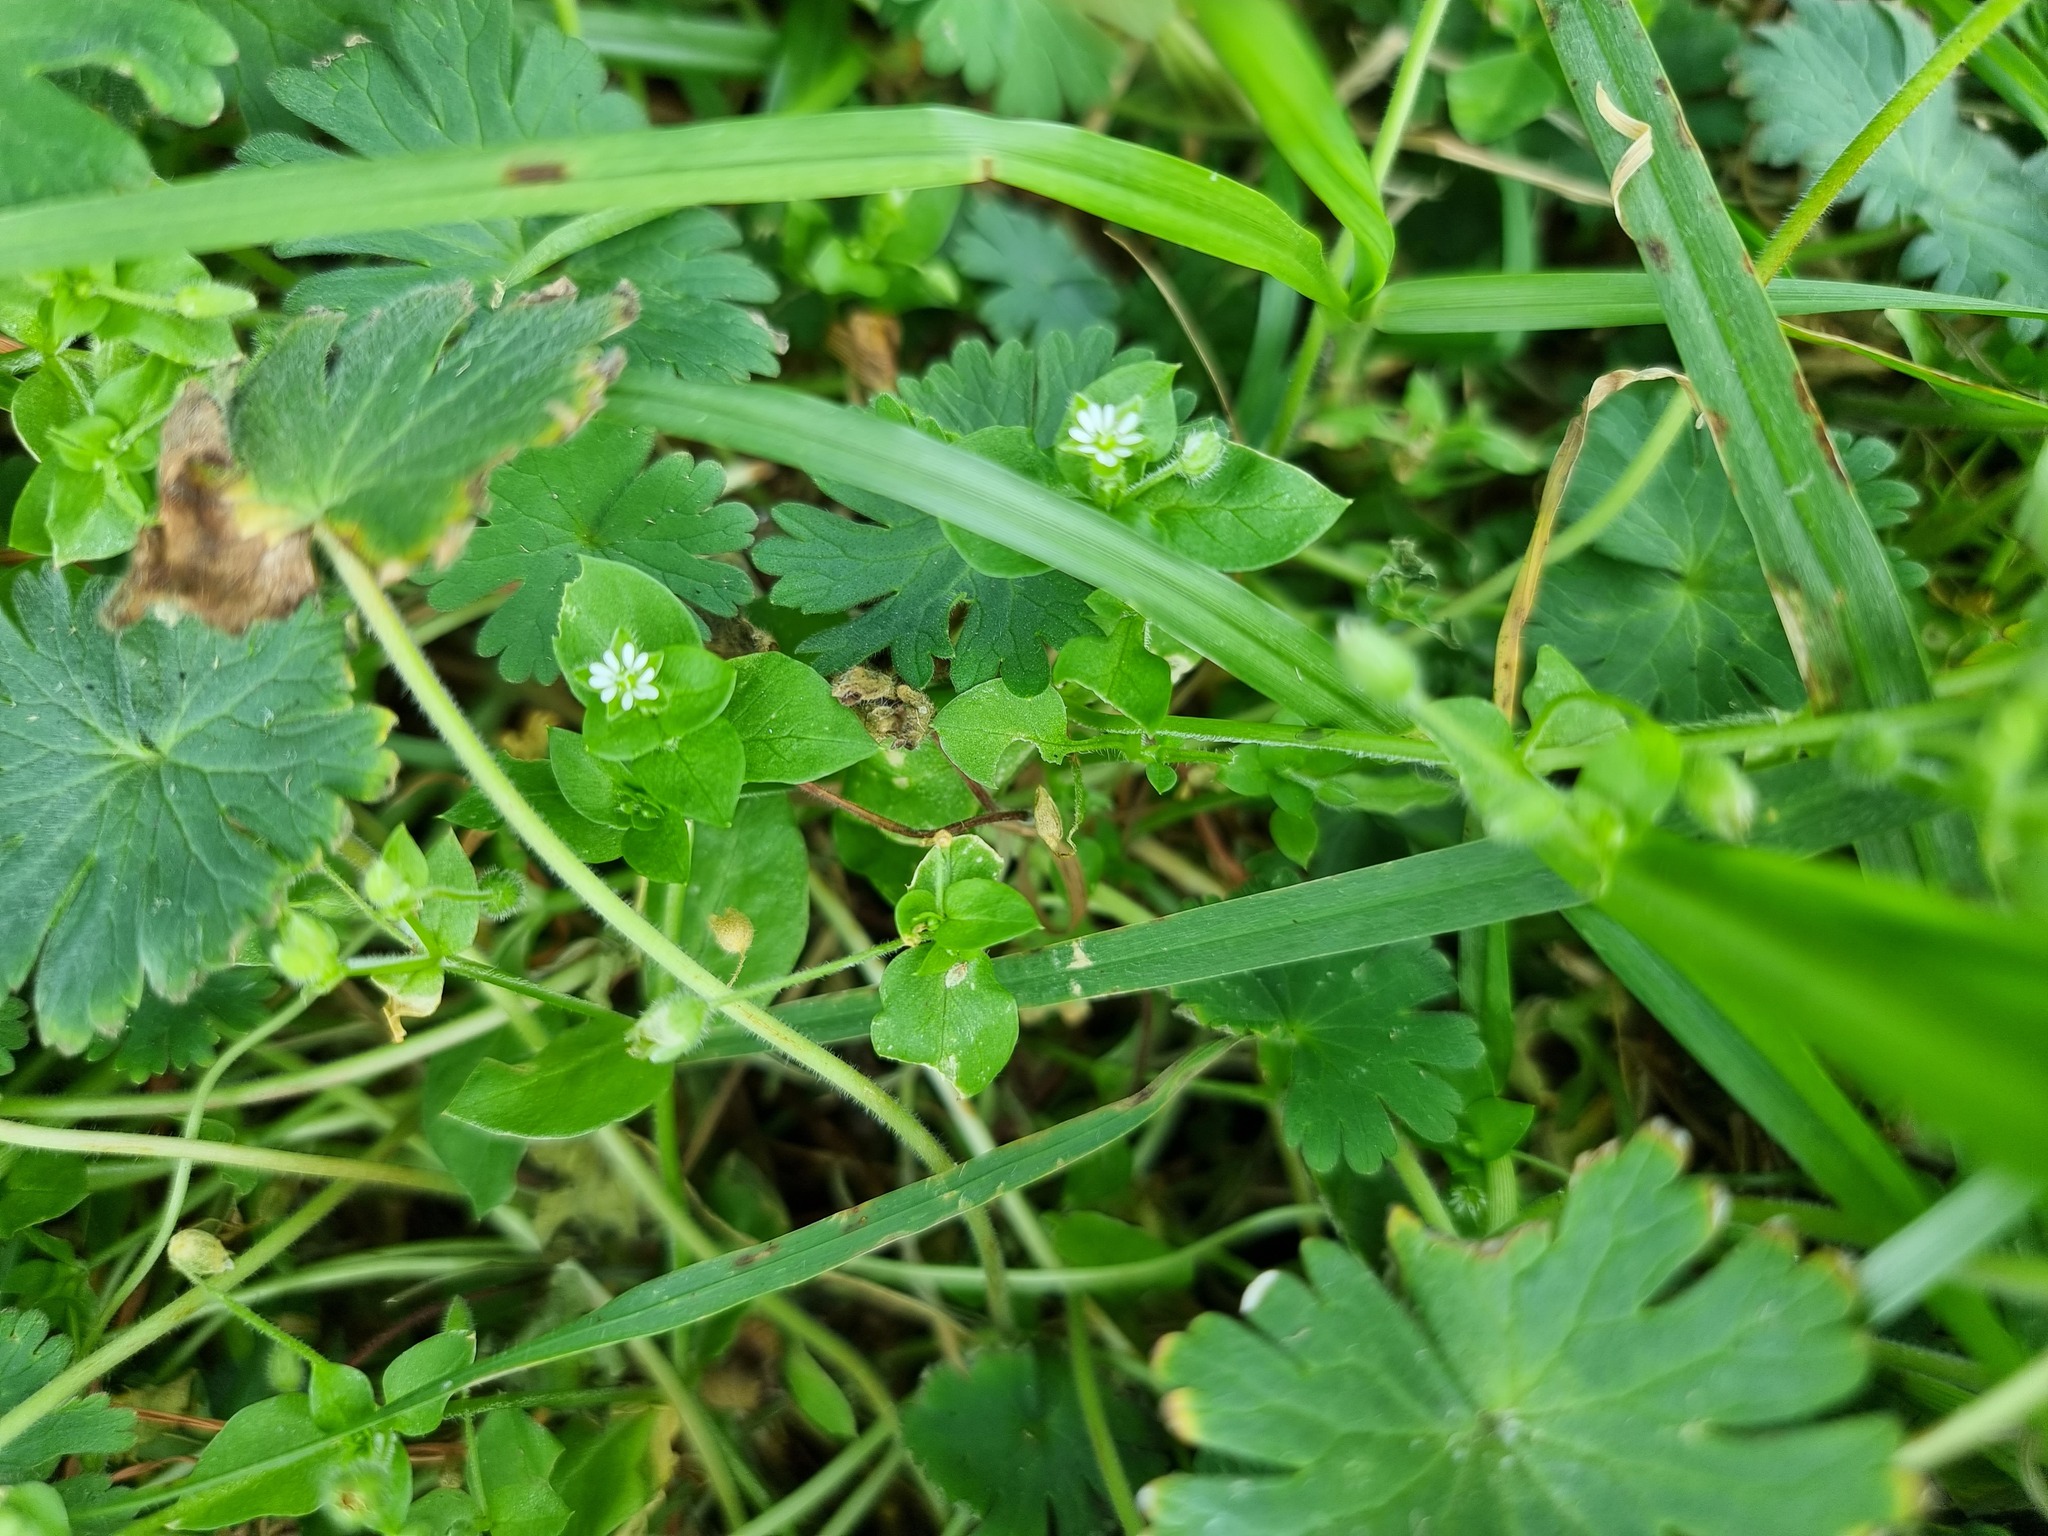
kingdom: Plantae
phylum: Tracheophyta
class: Magnoliopsida
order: Caryophyllales
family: Caryophyllaceae
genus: Stellaria
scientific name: Stellaria media
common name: Common chickweed
